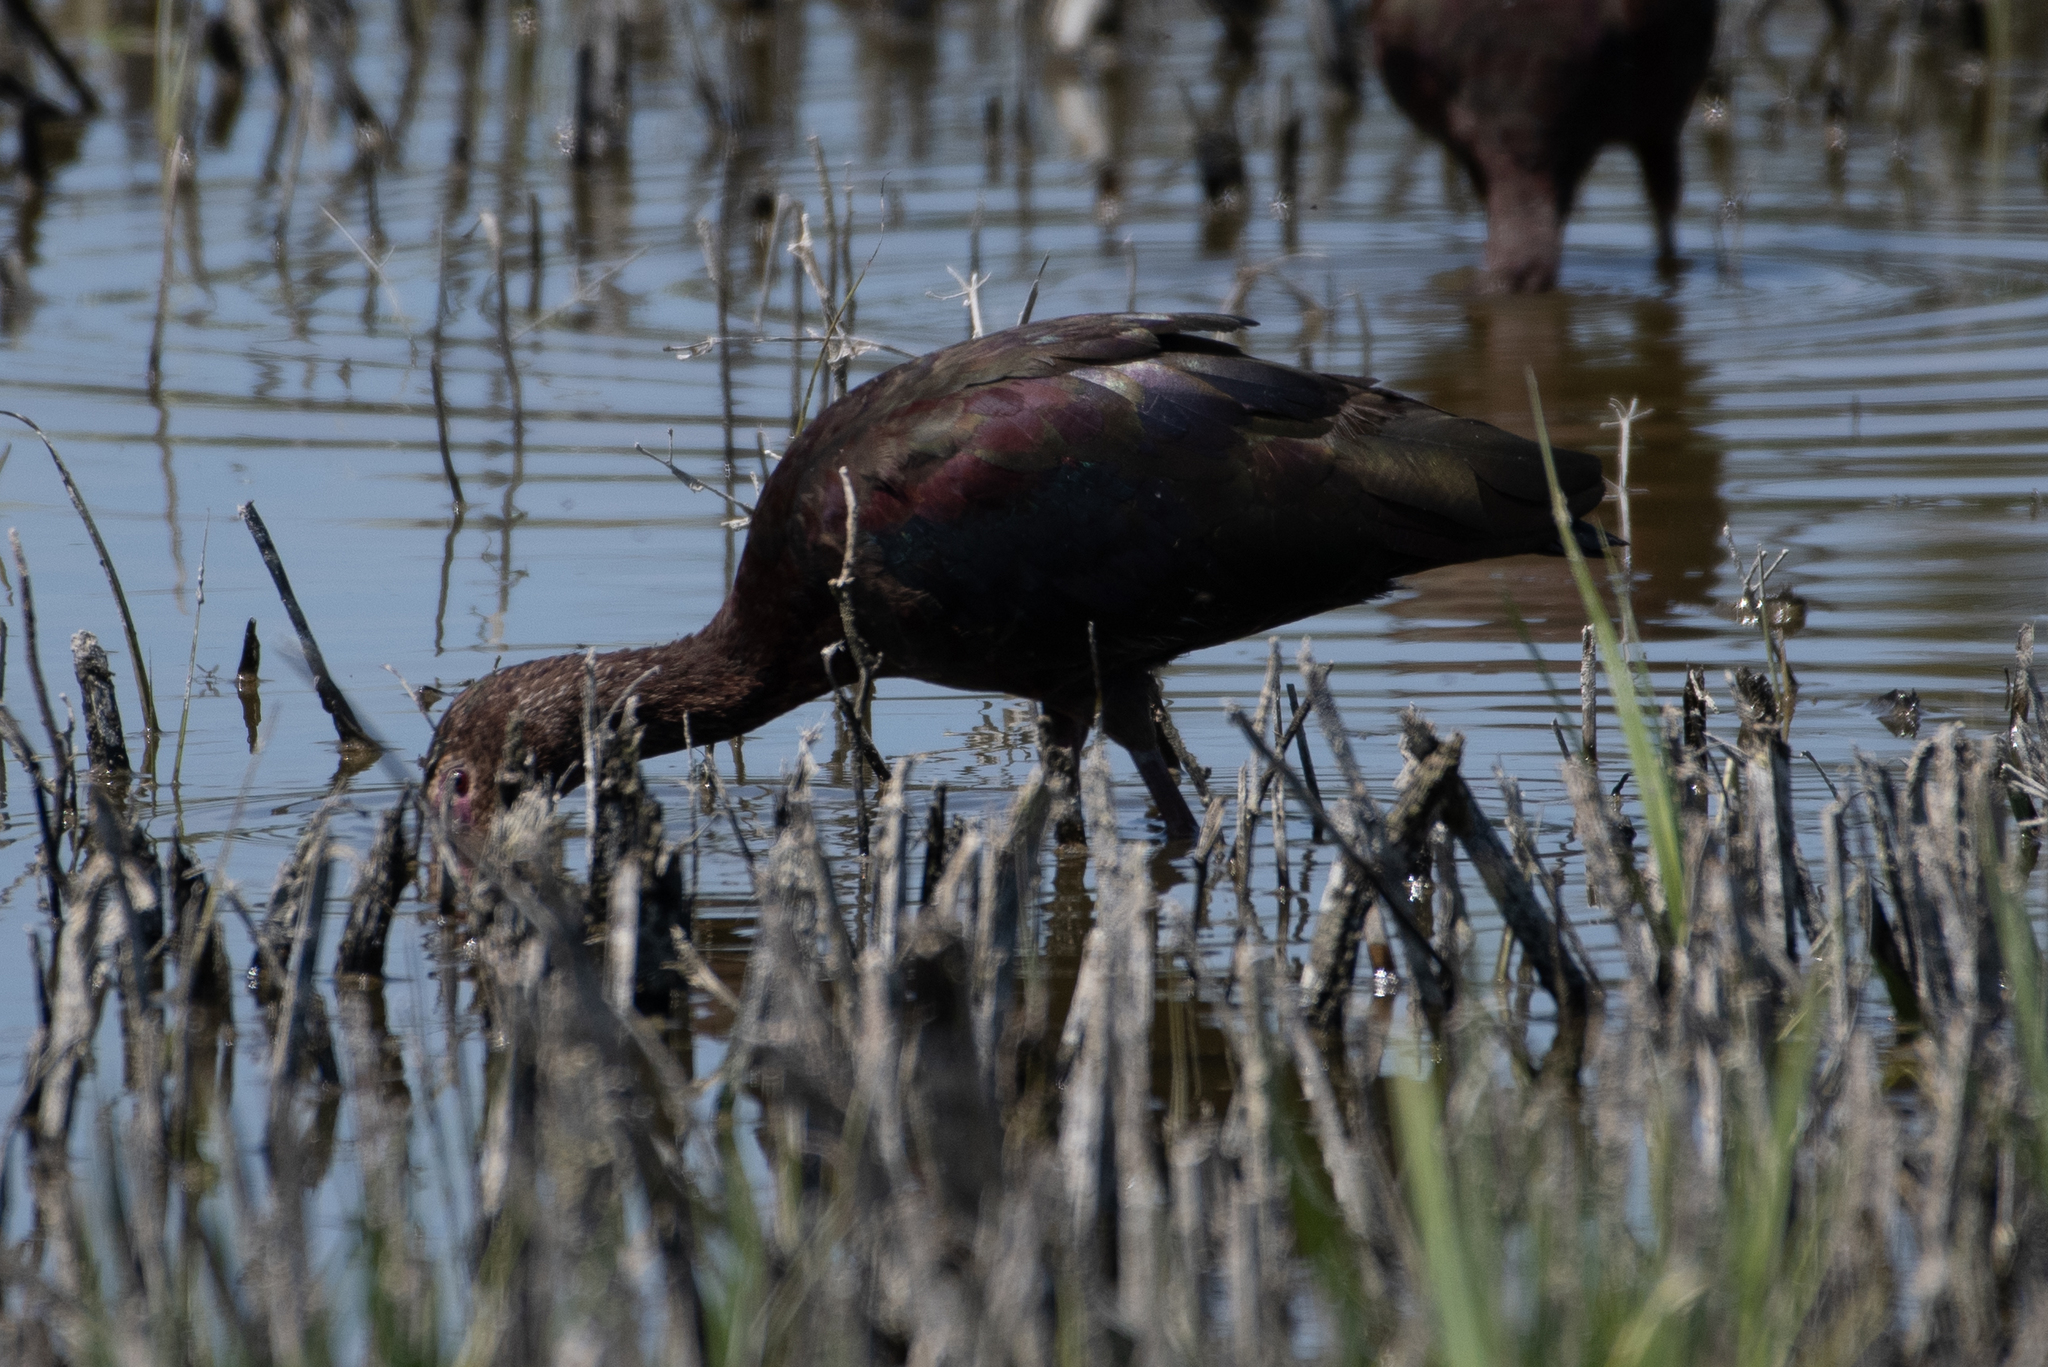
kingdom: Animalia
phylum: Chordata
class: Aves
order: Pelecaniformes
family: Threskiornithidae
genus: Plegadis
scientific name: Plegadis chihi
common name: White-faced ibis
